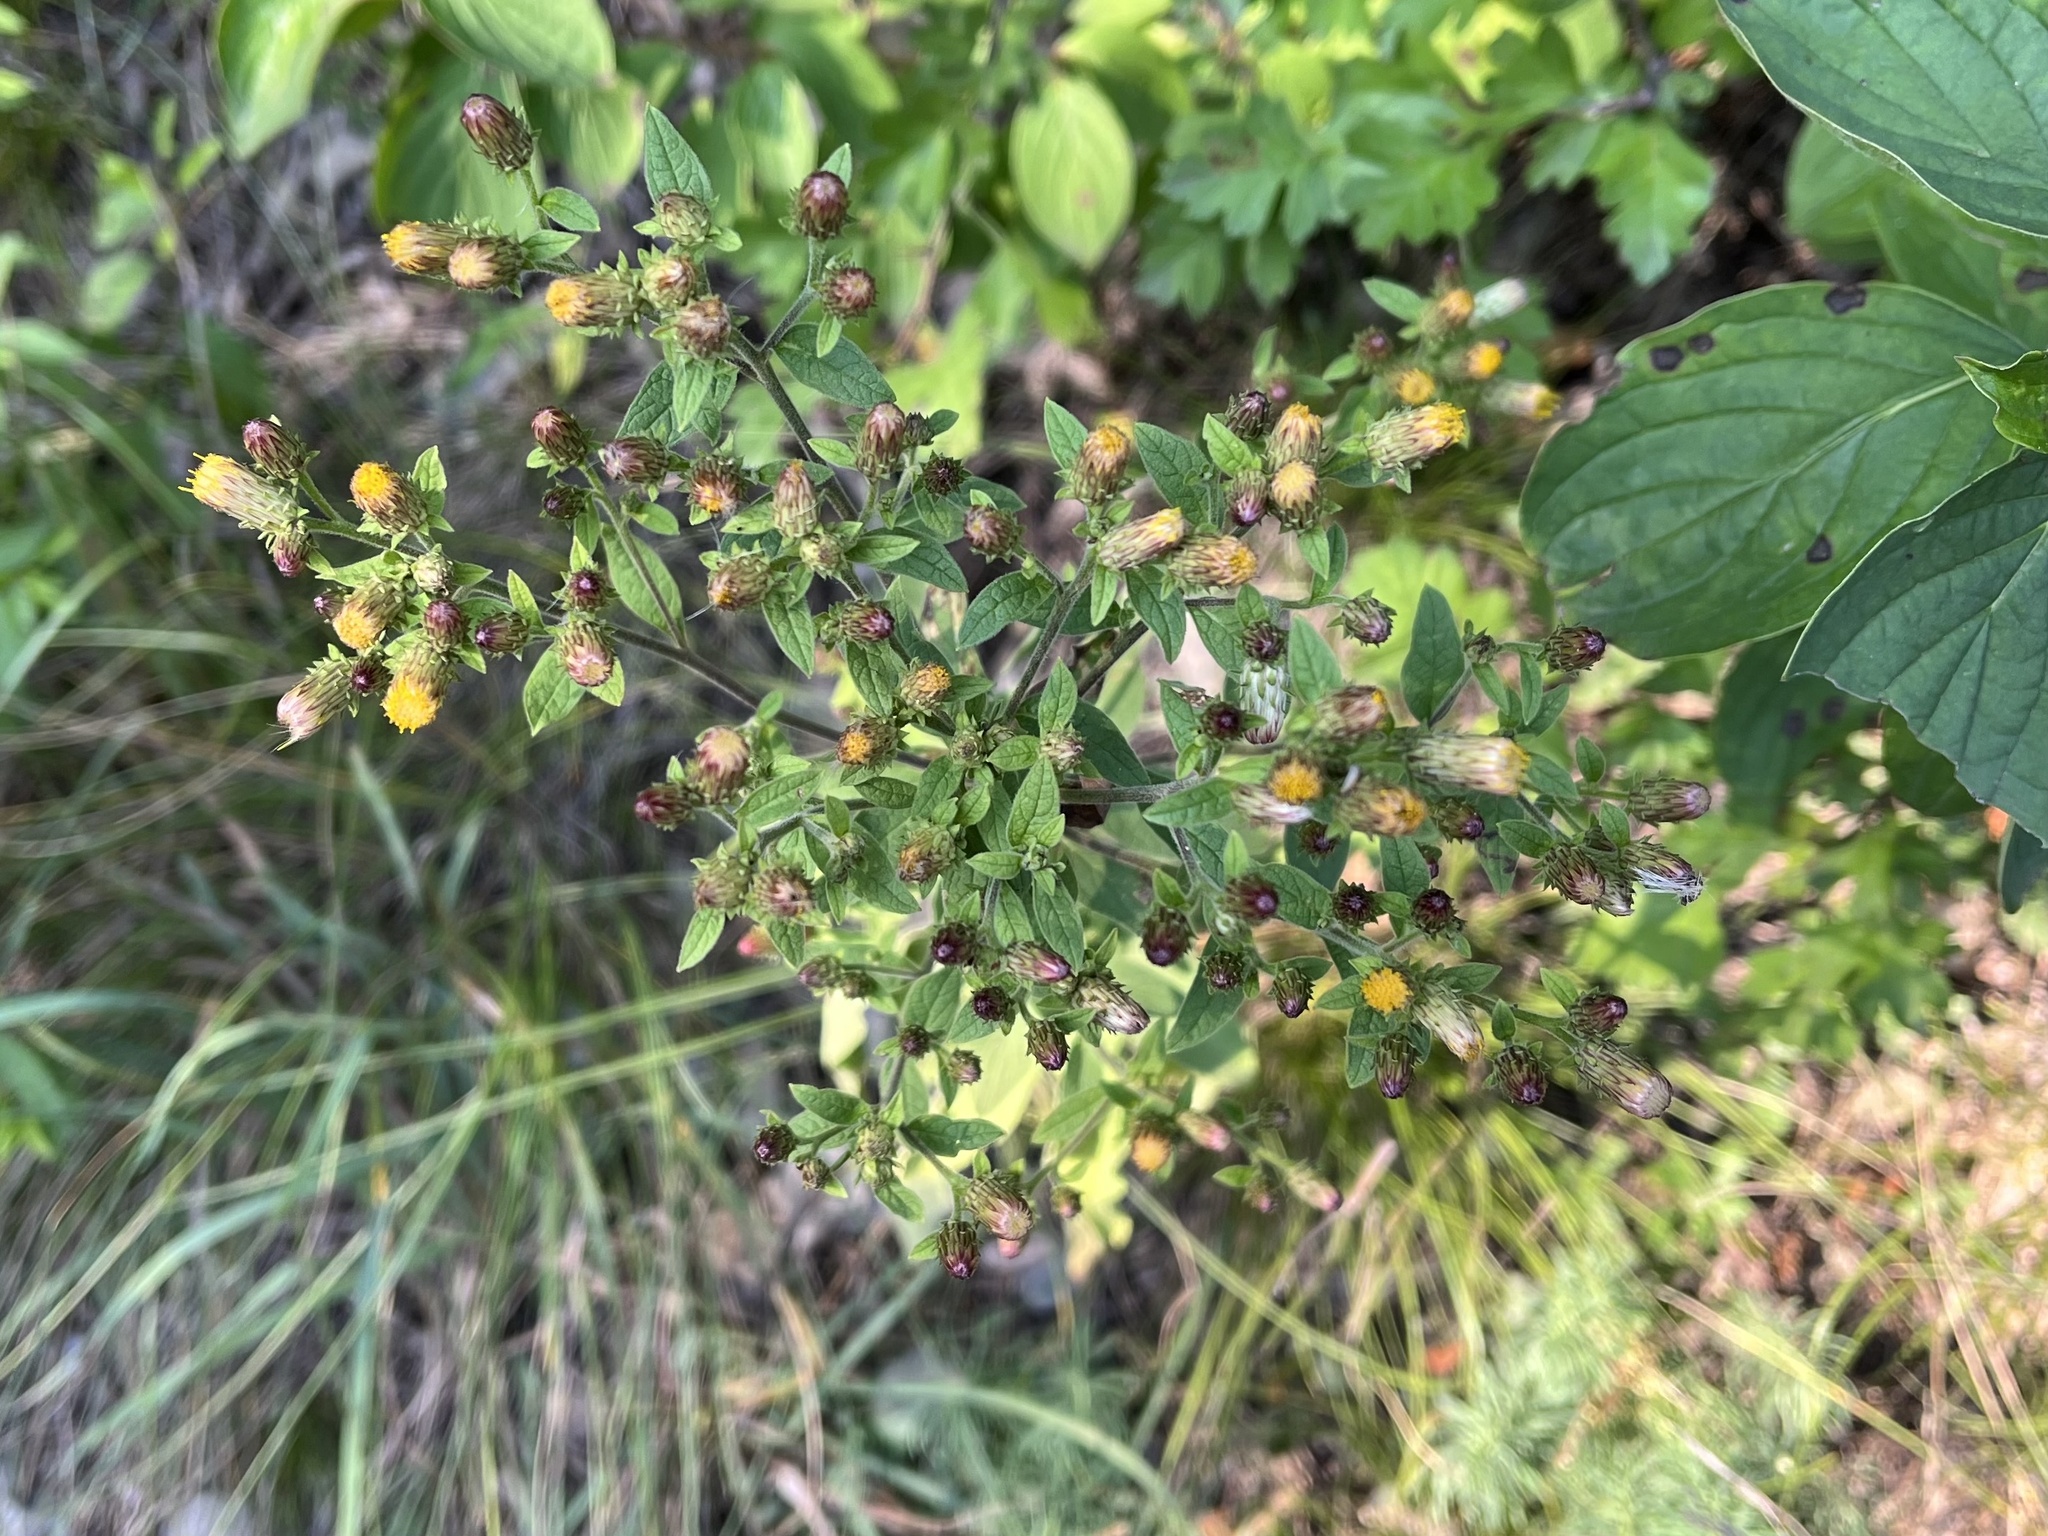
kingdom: Plantae
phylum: Tracheophyta
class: Magnoliopsida
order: Asterales
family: Asteraceae
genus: Pentanema
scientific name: Pentanema squarrosum
